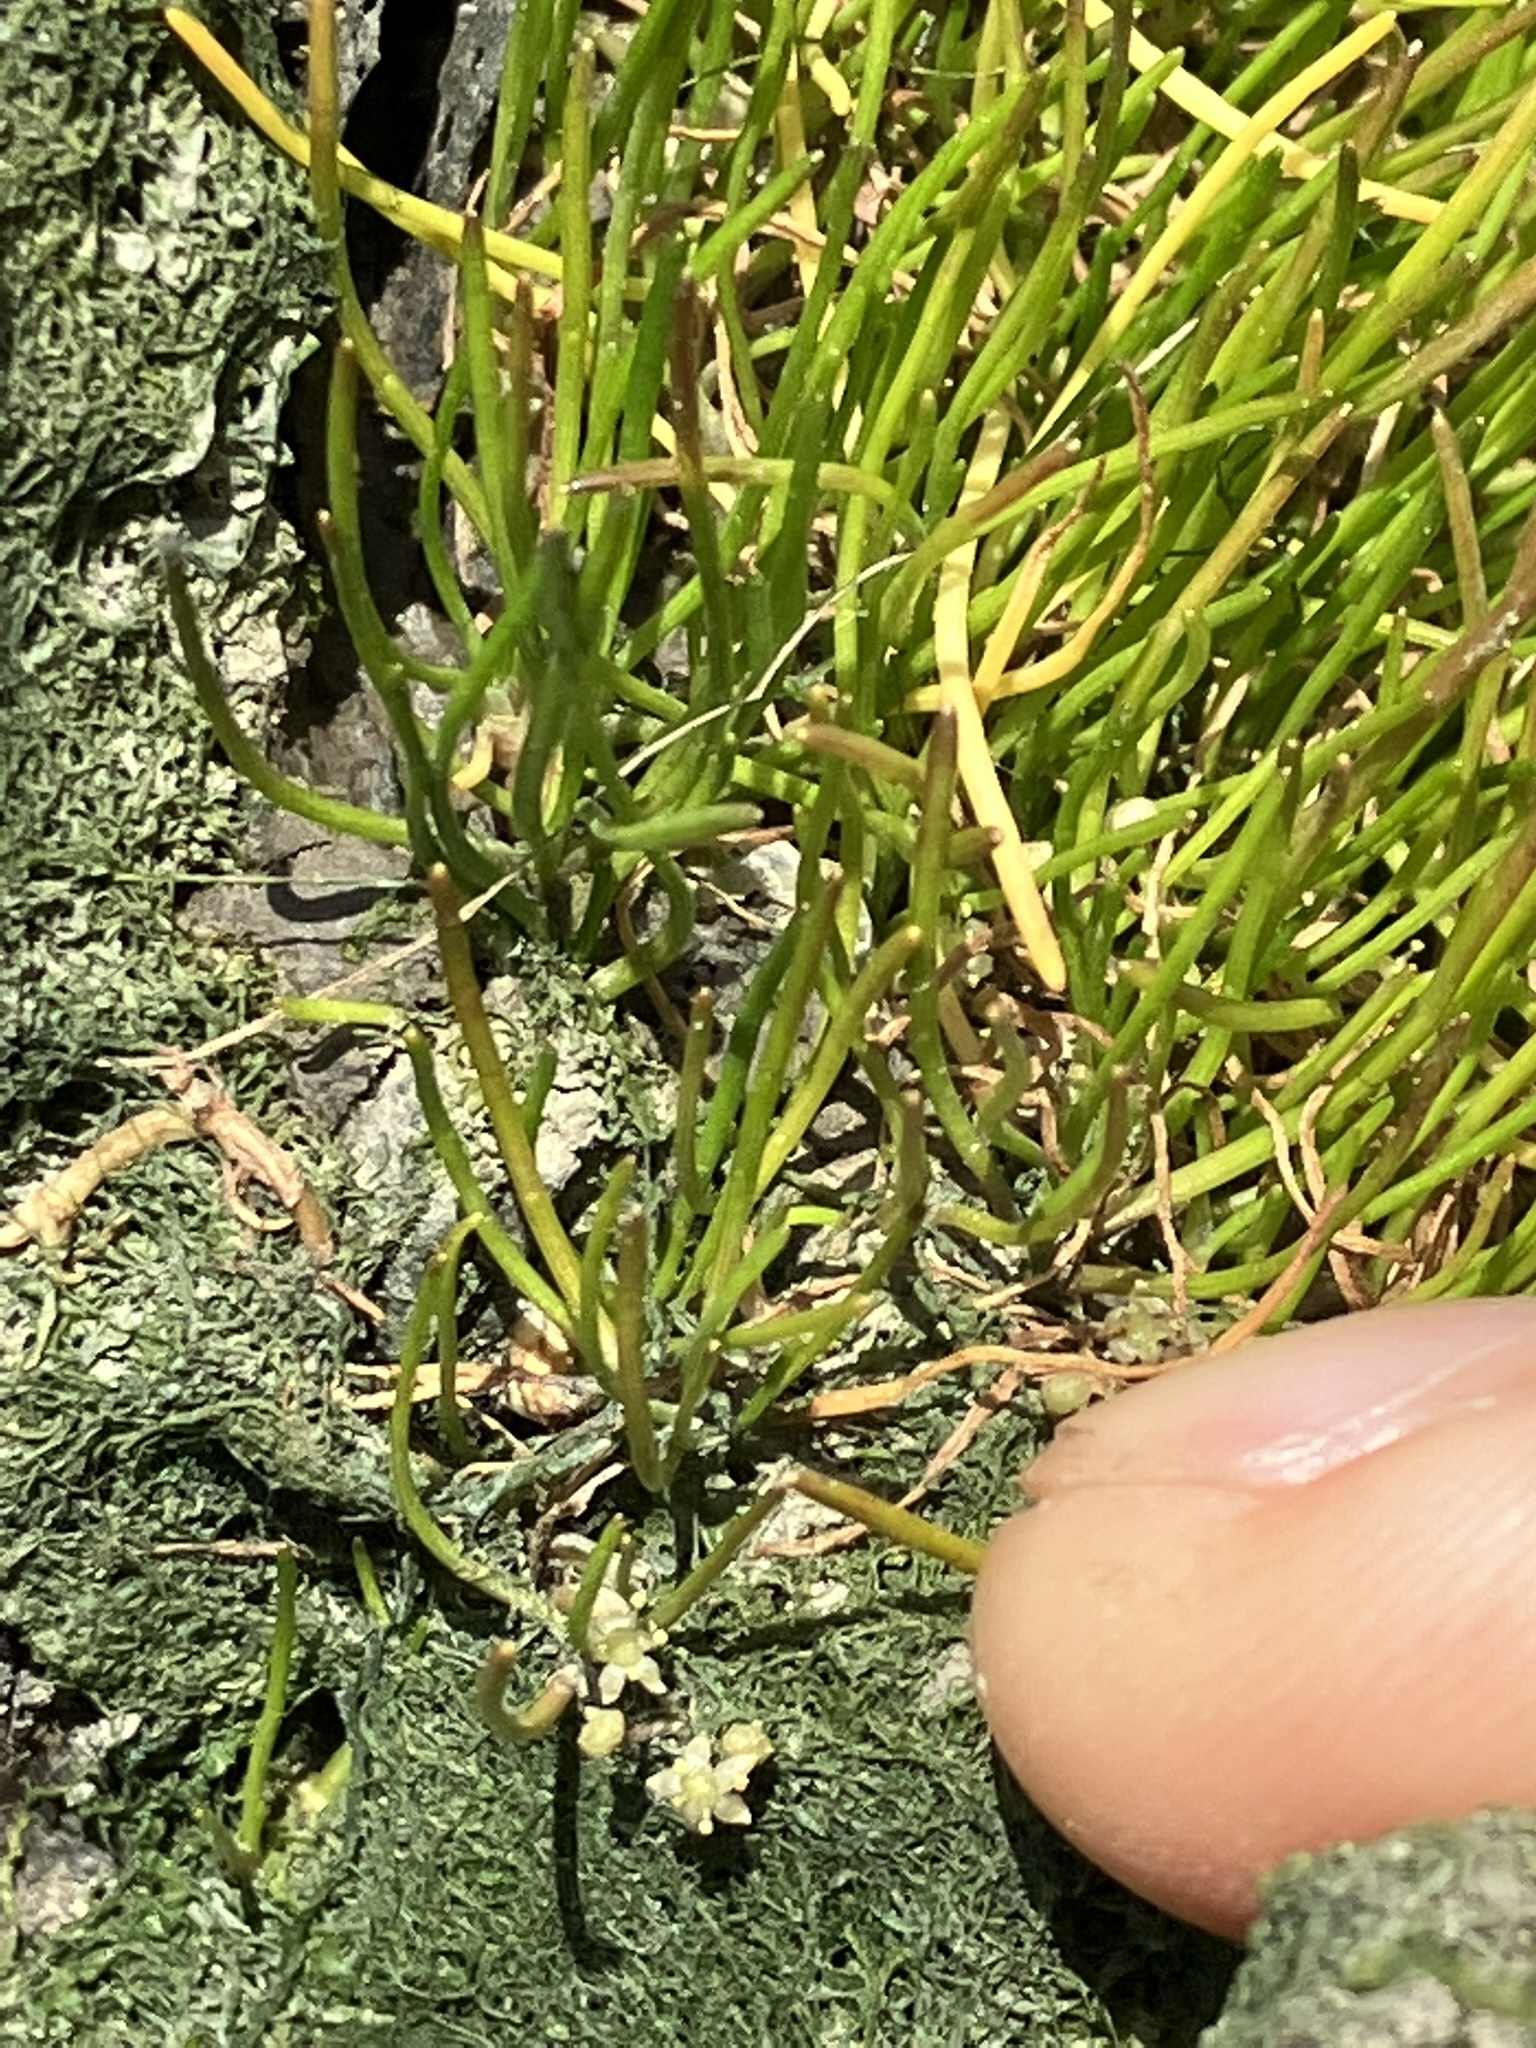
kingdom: Plantae
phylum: Tracheophyta
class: Magnoliopsida
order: Apiales
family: Apiaceae
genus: Lilaeopsis
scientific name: Lilaeopsis occidentalis
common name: Western grasswort
